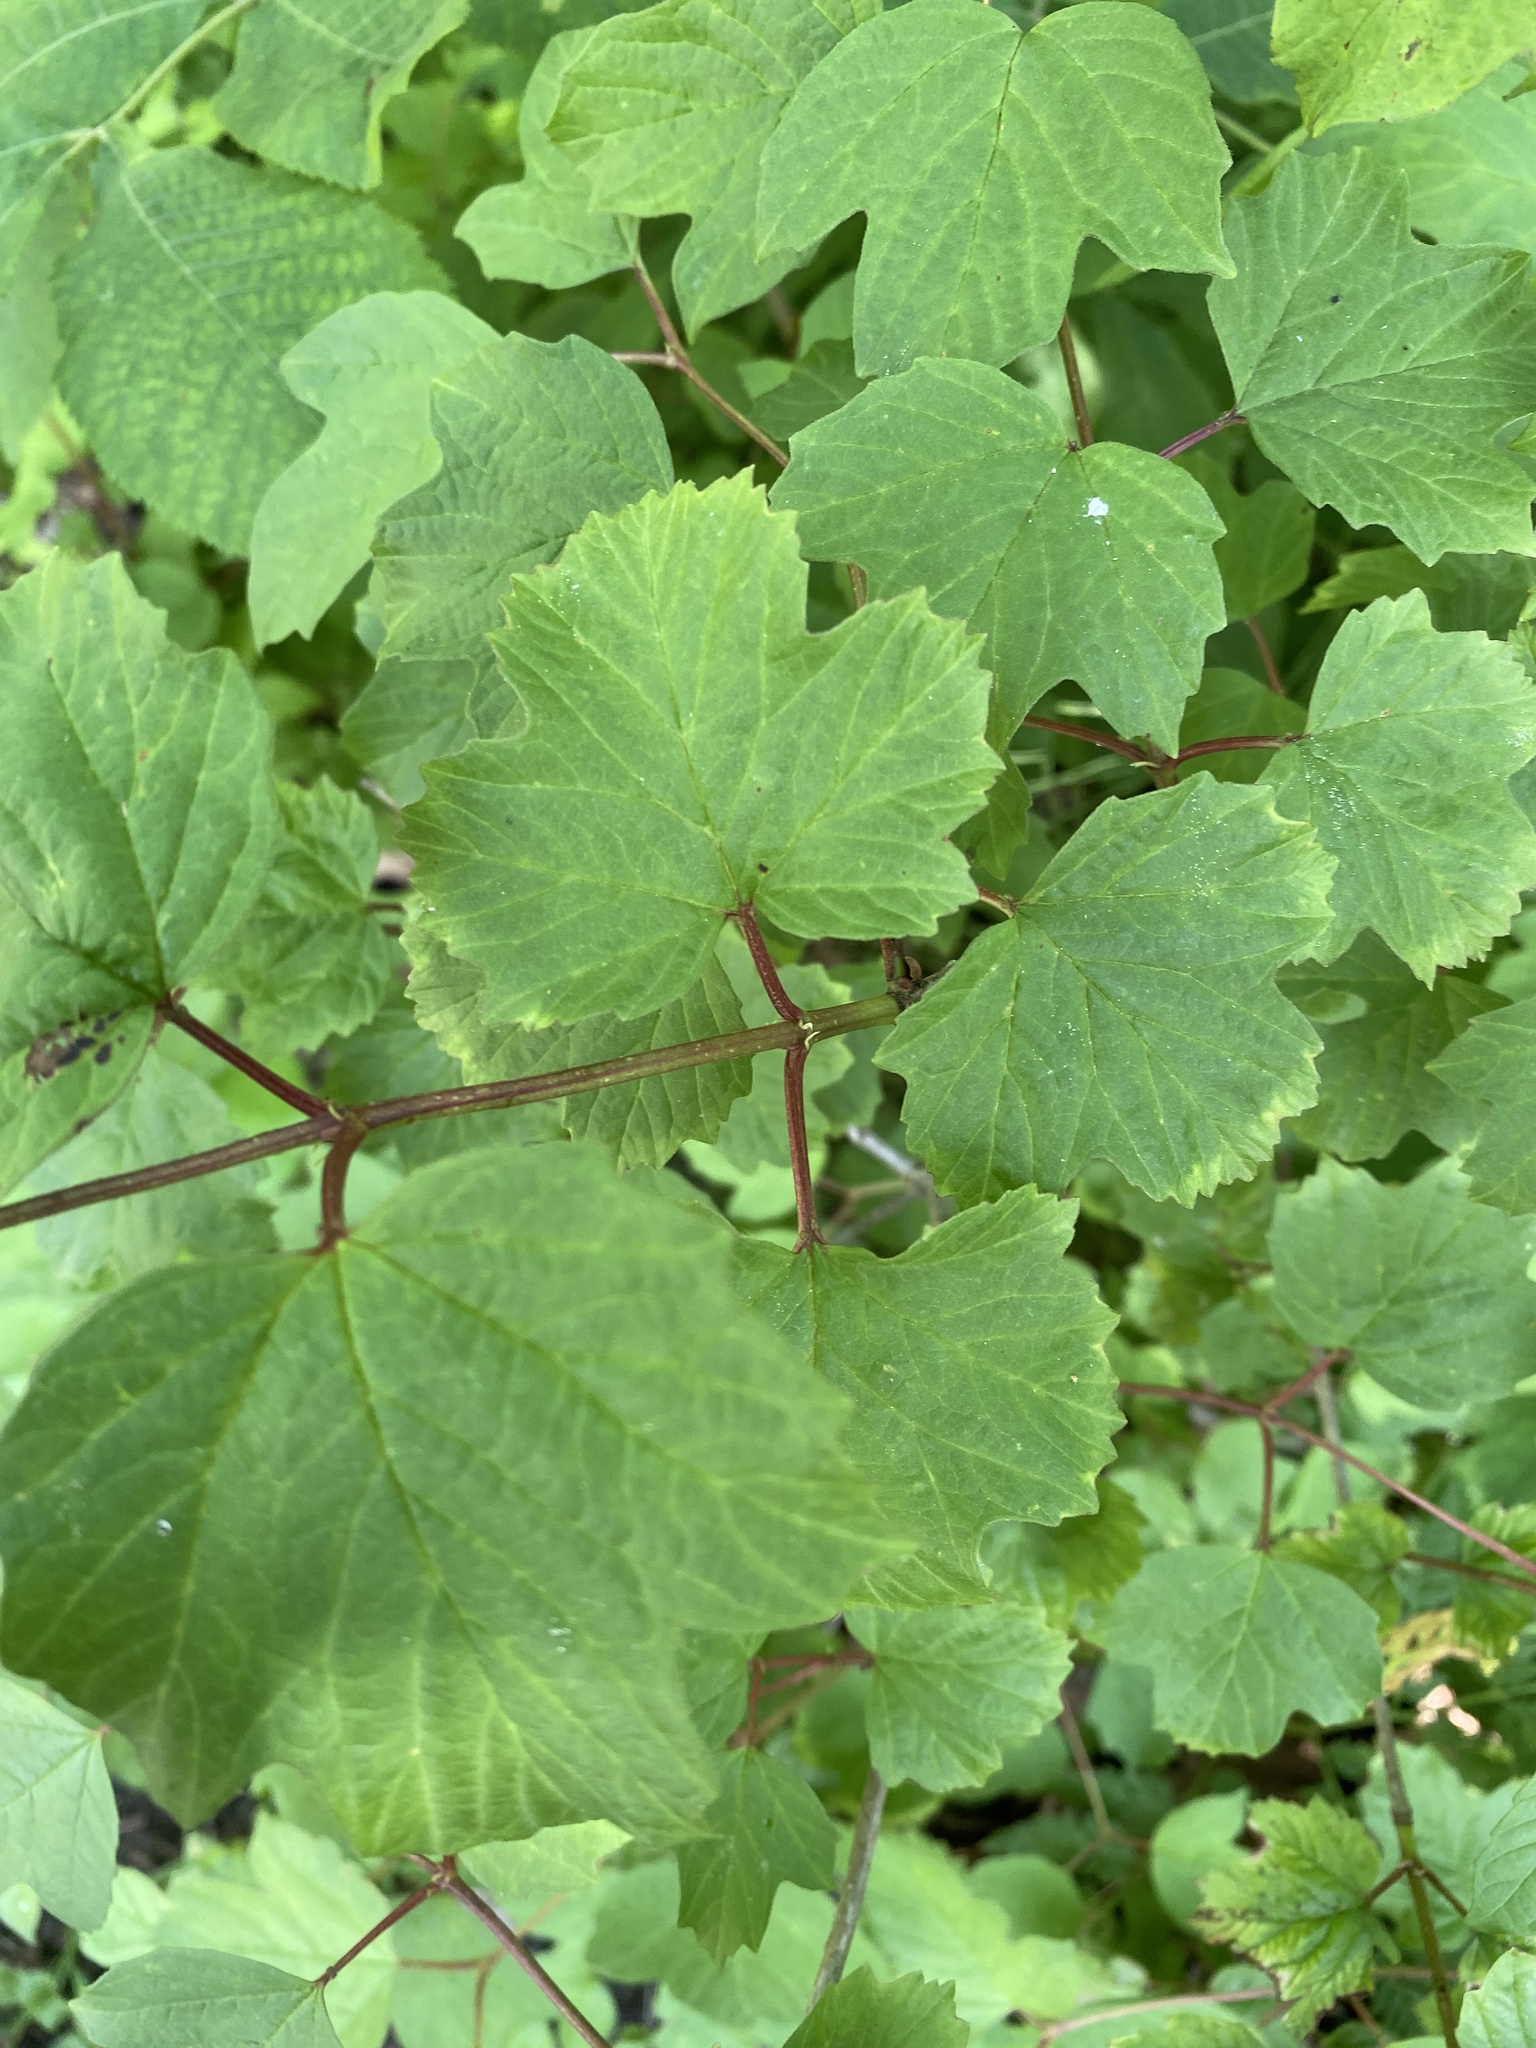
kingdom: Plantae
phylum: Tracheophyta
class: Magnoliopsida
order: Dipsacales
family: Viburnaceae
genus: Viburnum
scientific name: Viburnum opulus
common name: Guelder-rose
